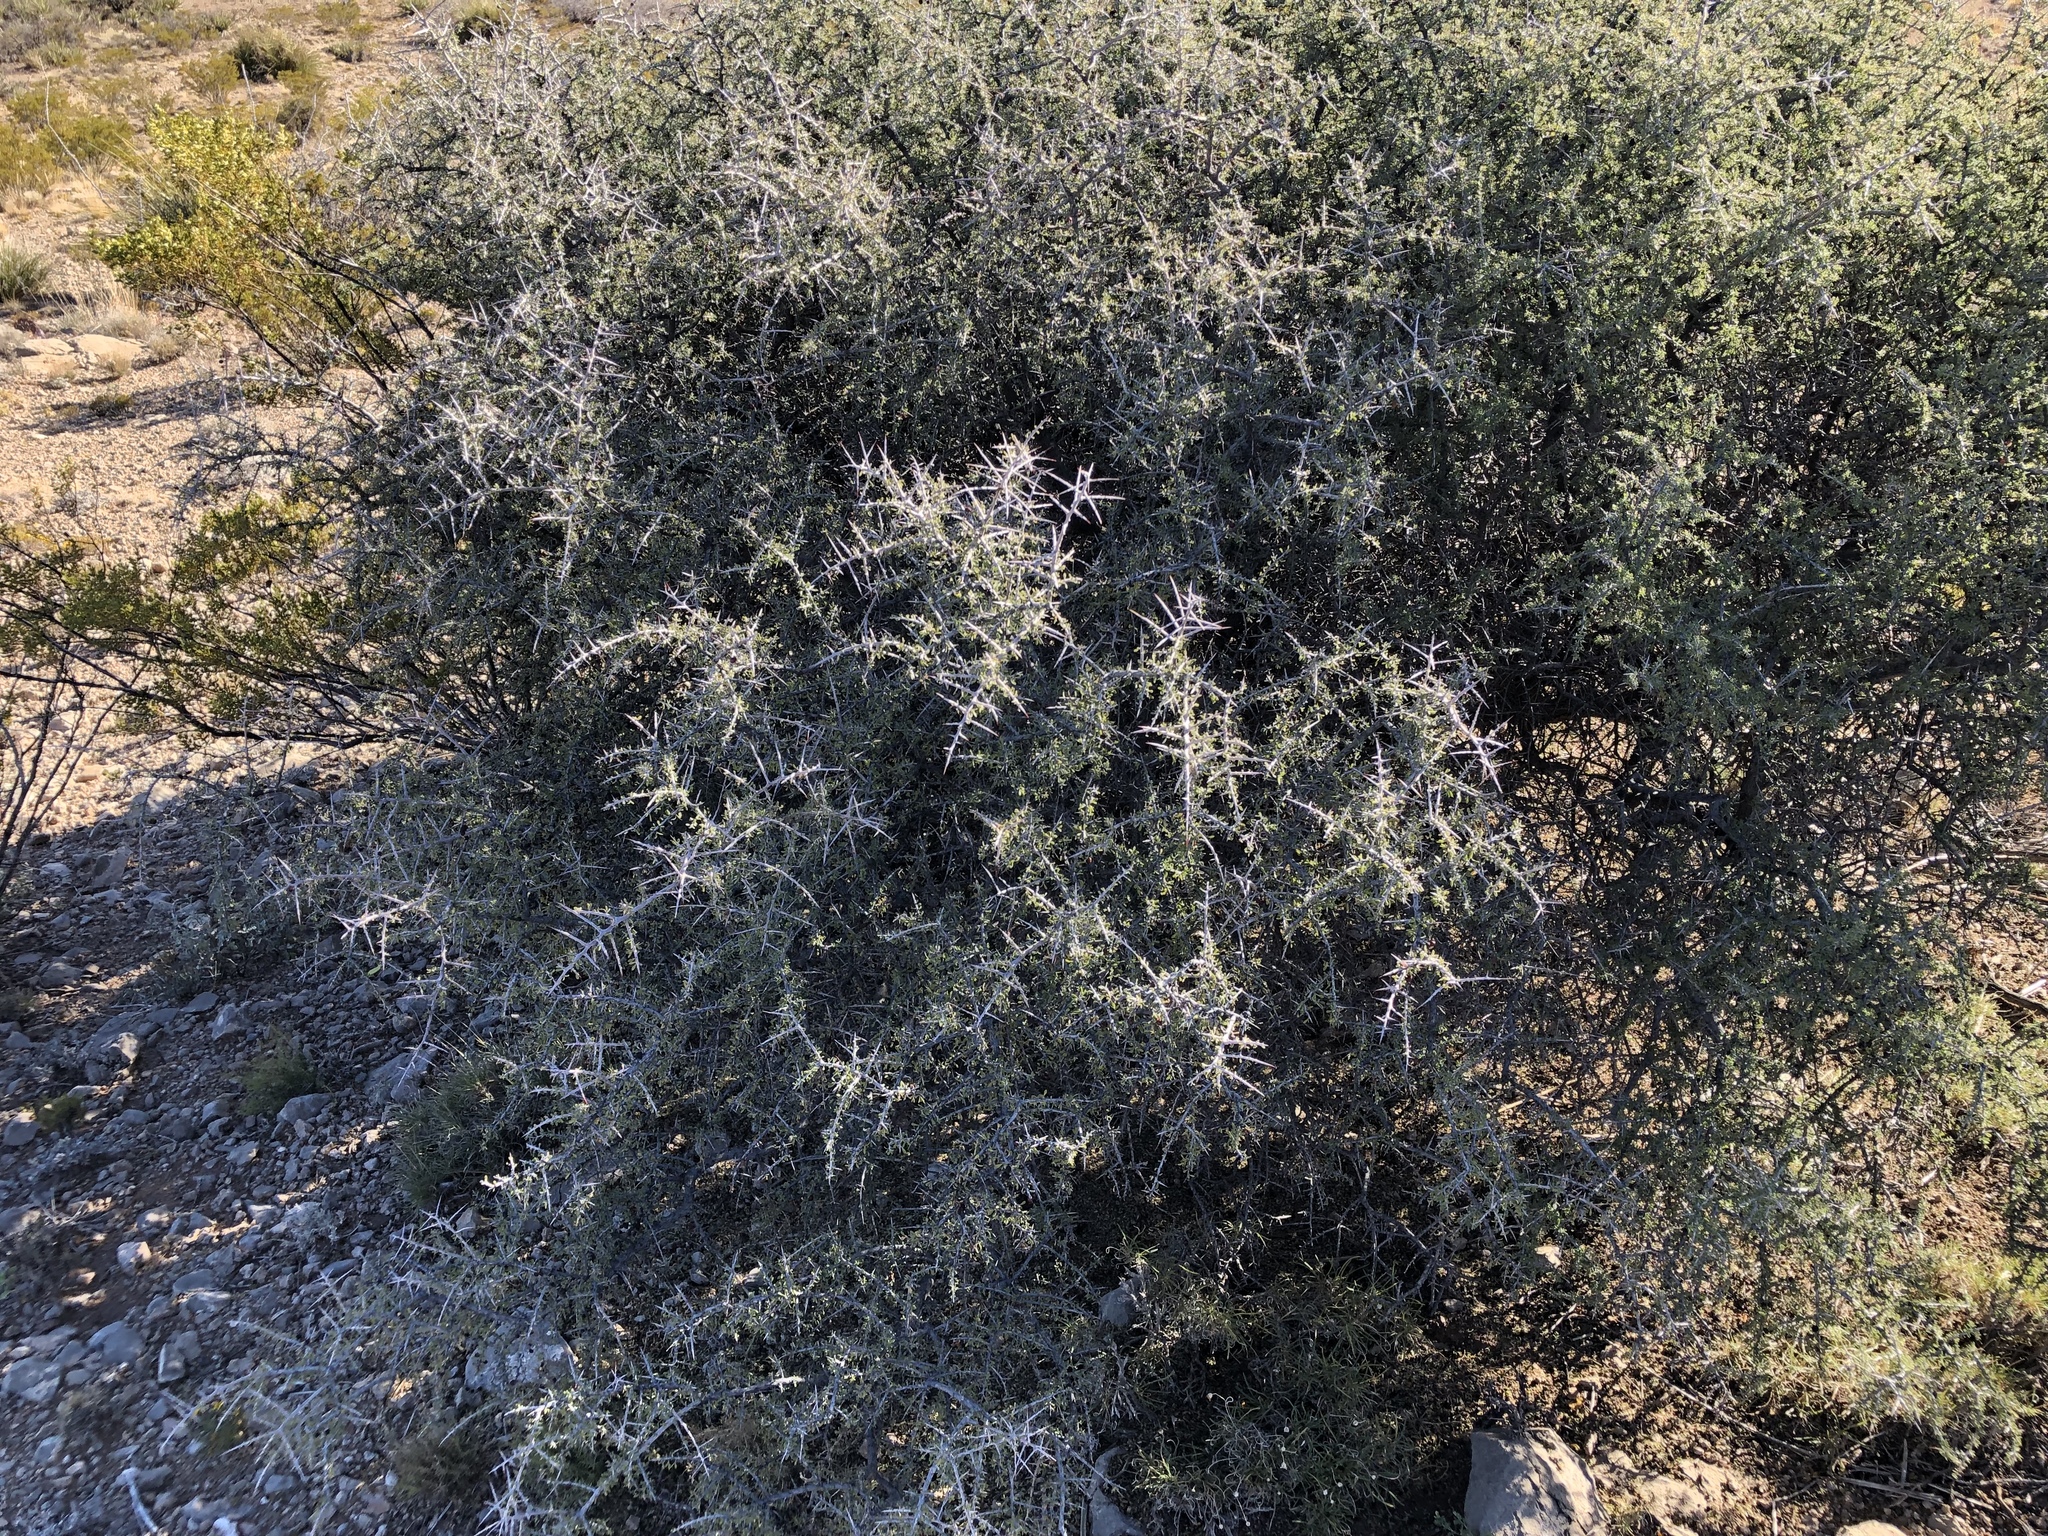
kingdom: Plantae
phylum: Tracheophyta
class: Magnoliopsida
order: Rosales
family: Rhamnaceae
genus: Condalia
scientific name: Condalia warnockii
